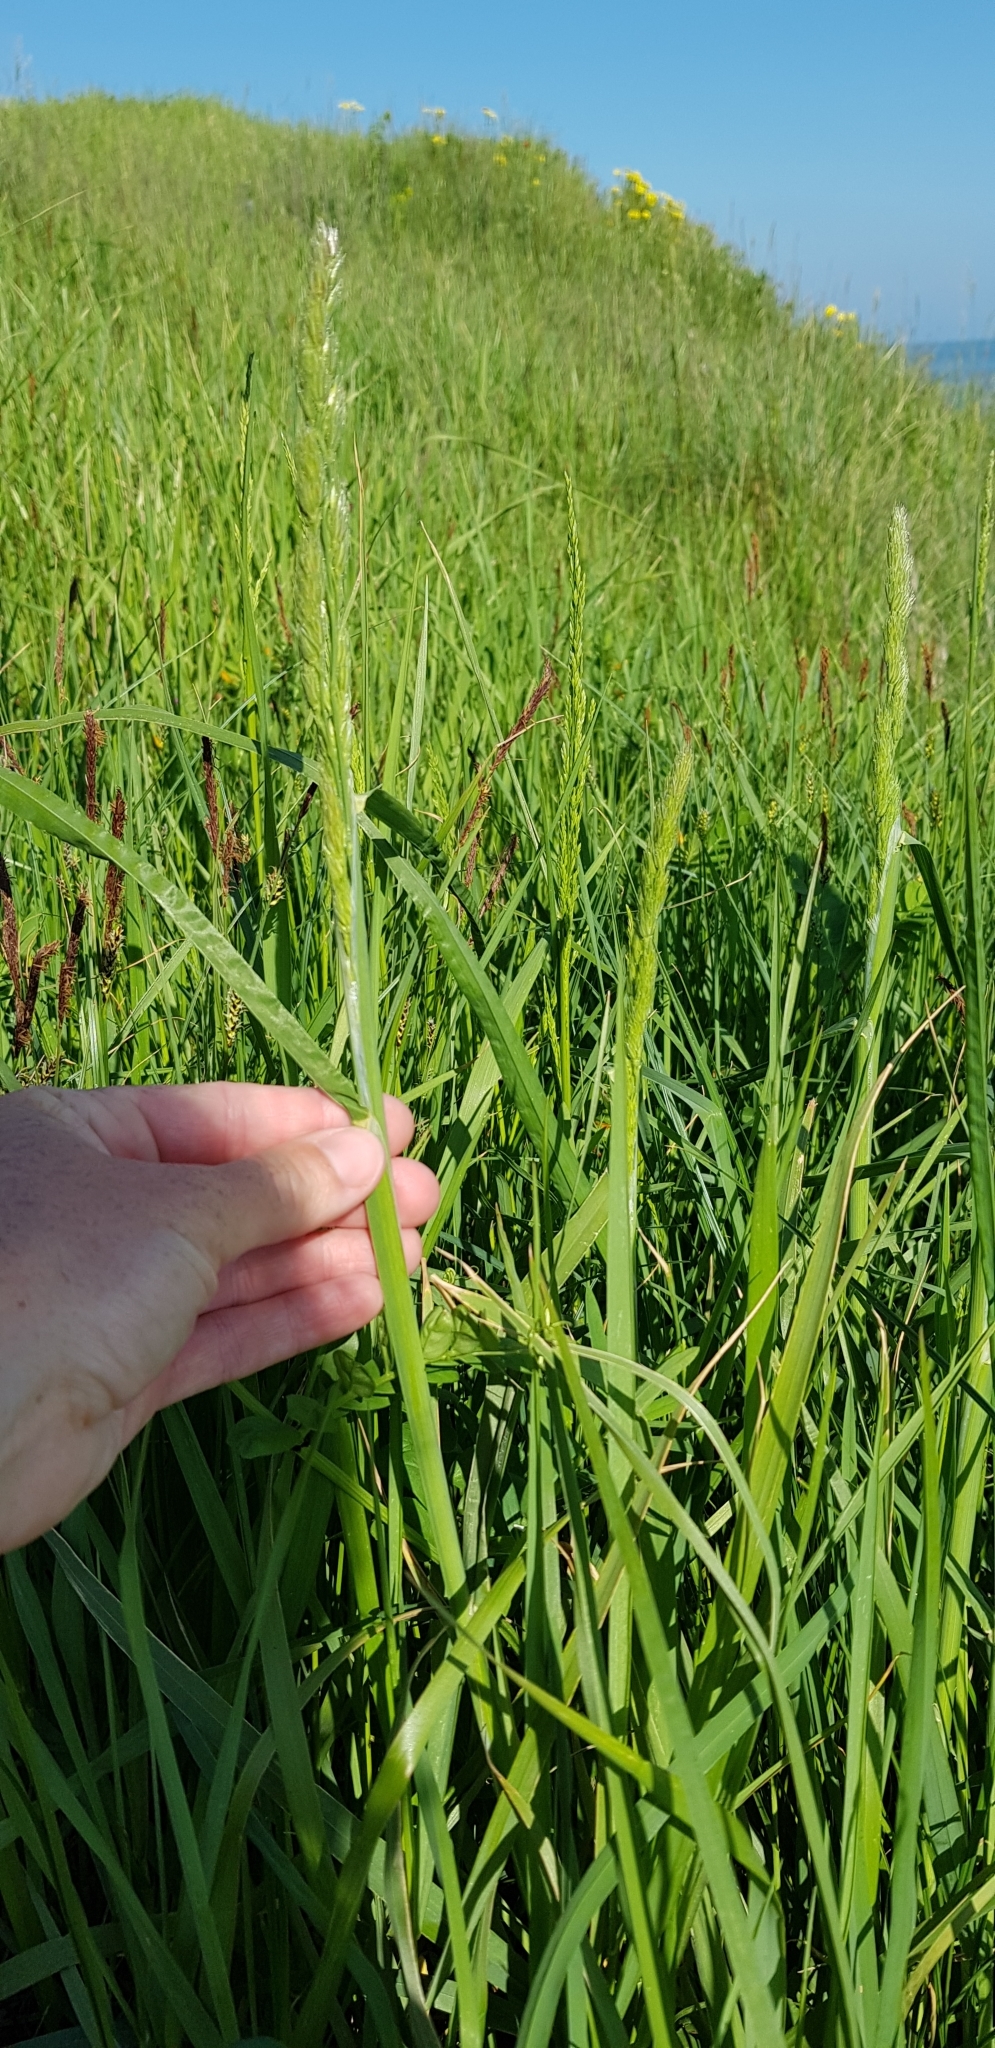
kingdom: Plantae
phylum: Tracheophyta
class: Liliopsida
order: Poales
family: Poaceae
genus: Dactylis
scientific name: Dactylis glomerata
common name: Orchardgrass
